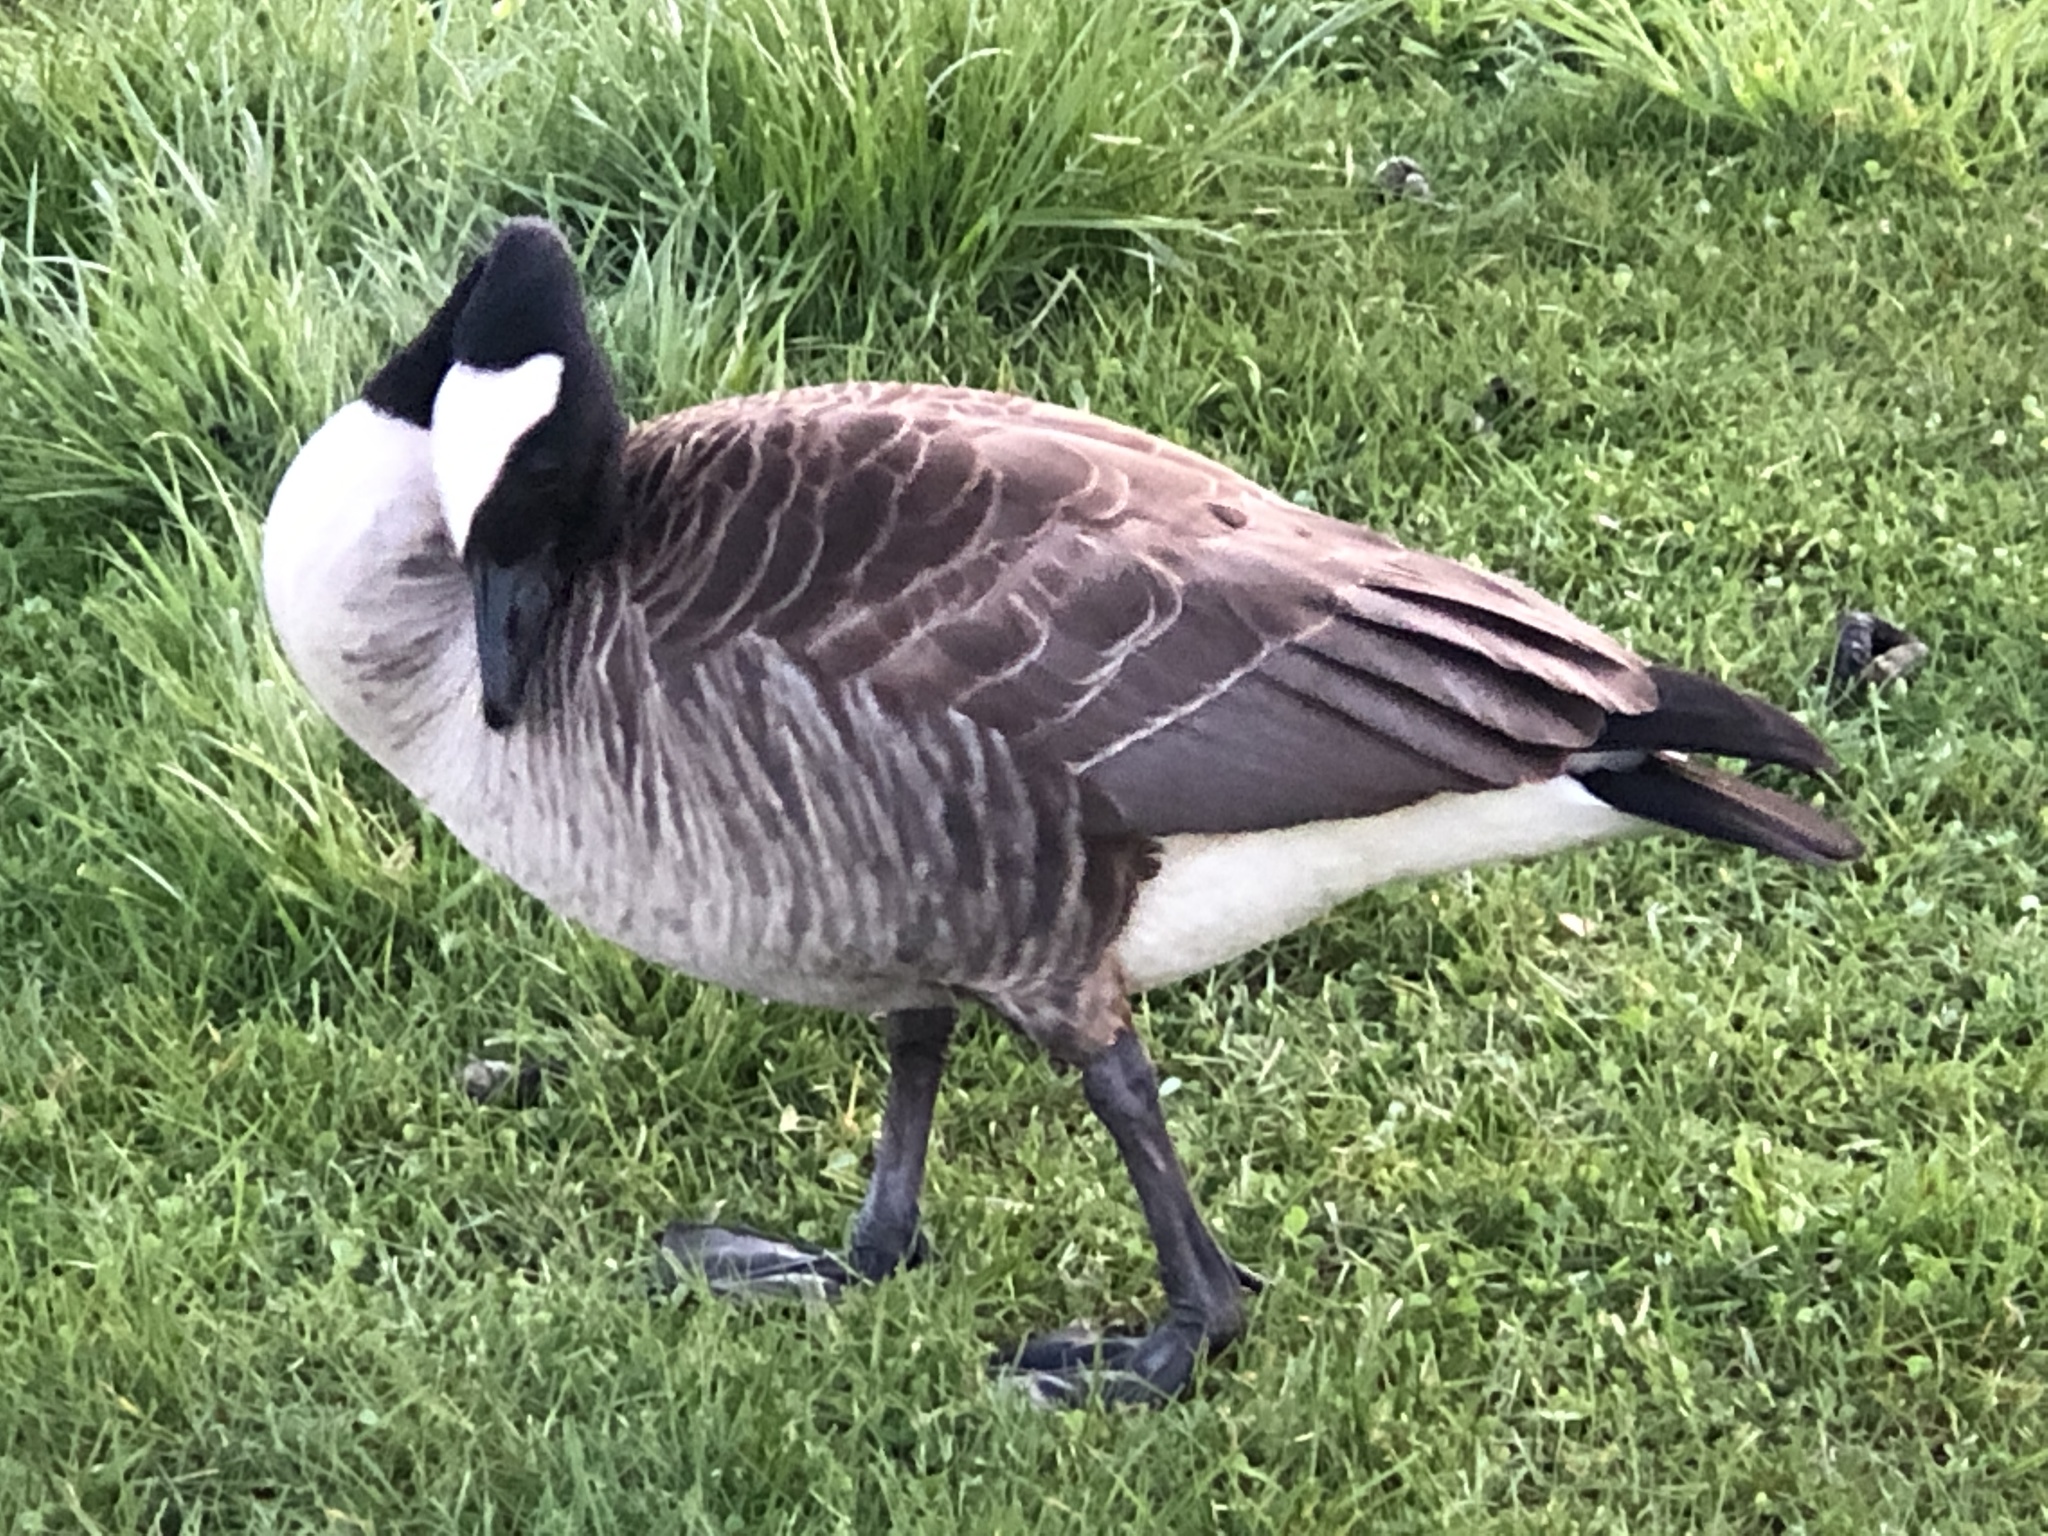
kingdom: Animalia
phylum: Chordata
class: Aves
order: Anseriformes
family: Anatidae
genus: Branta
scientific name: Branta canadensis
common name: Canada goose
